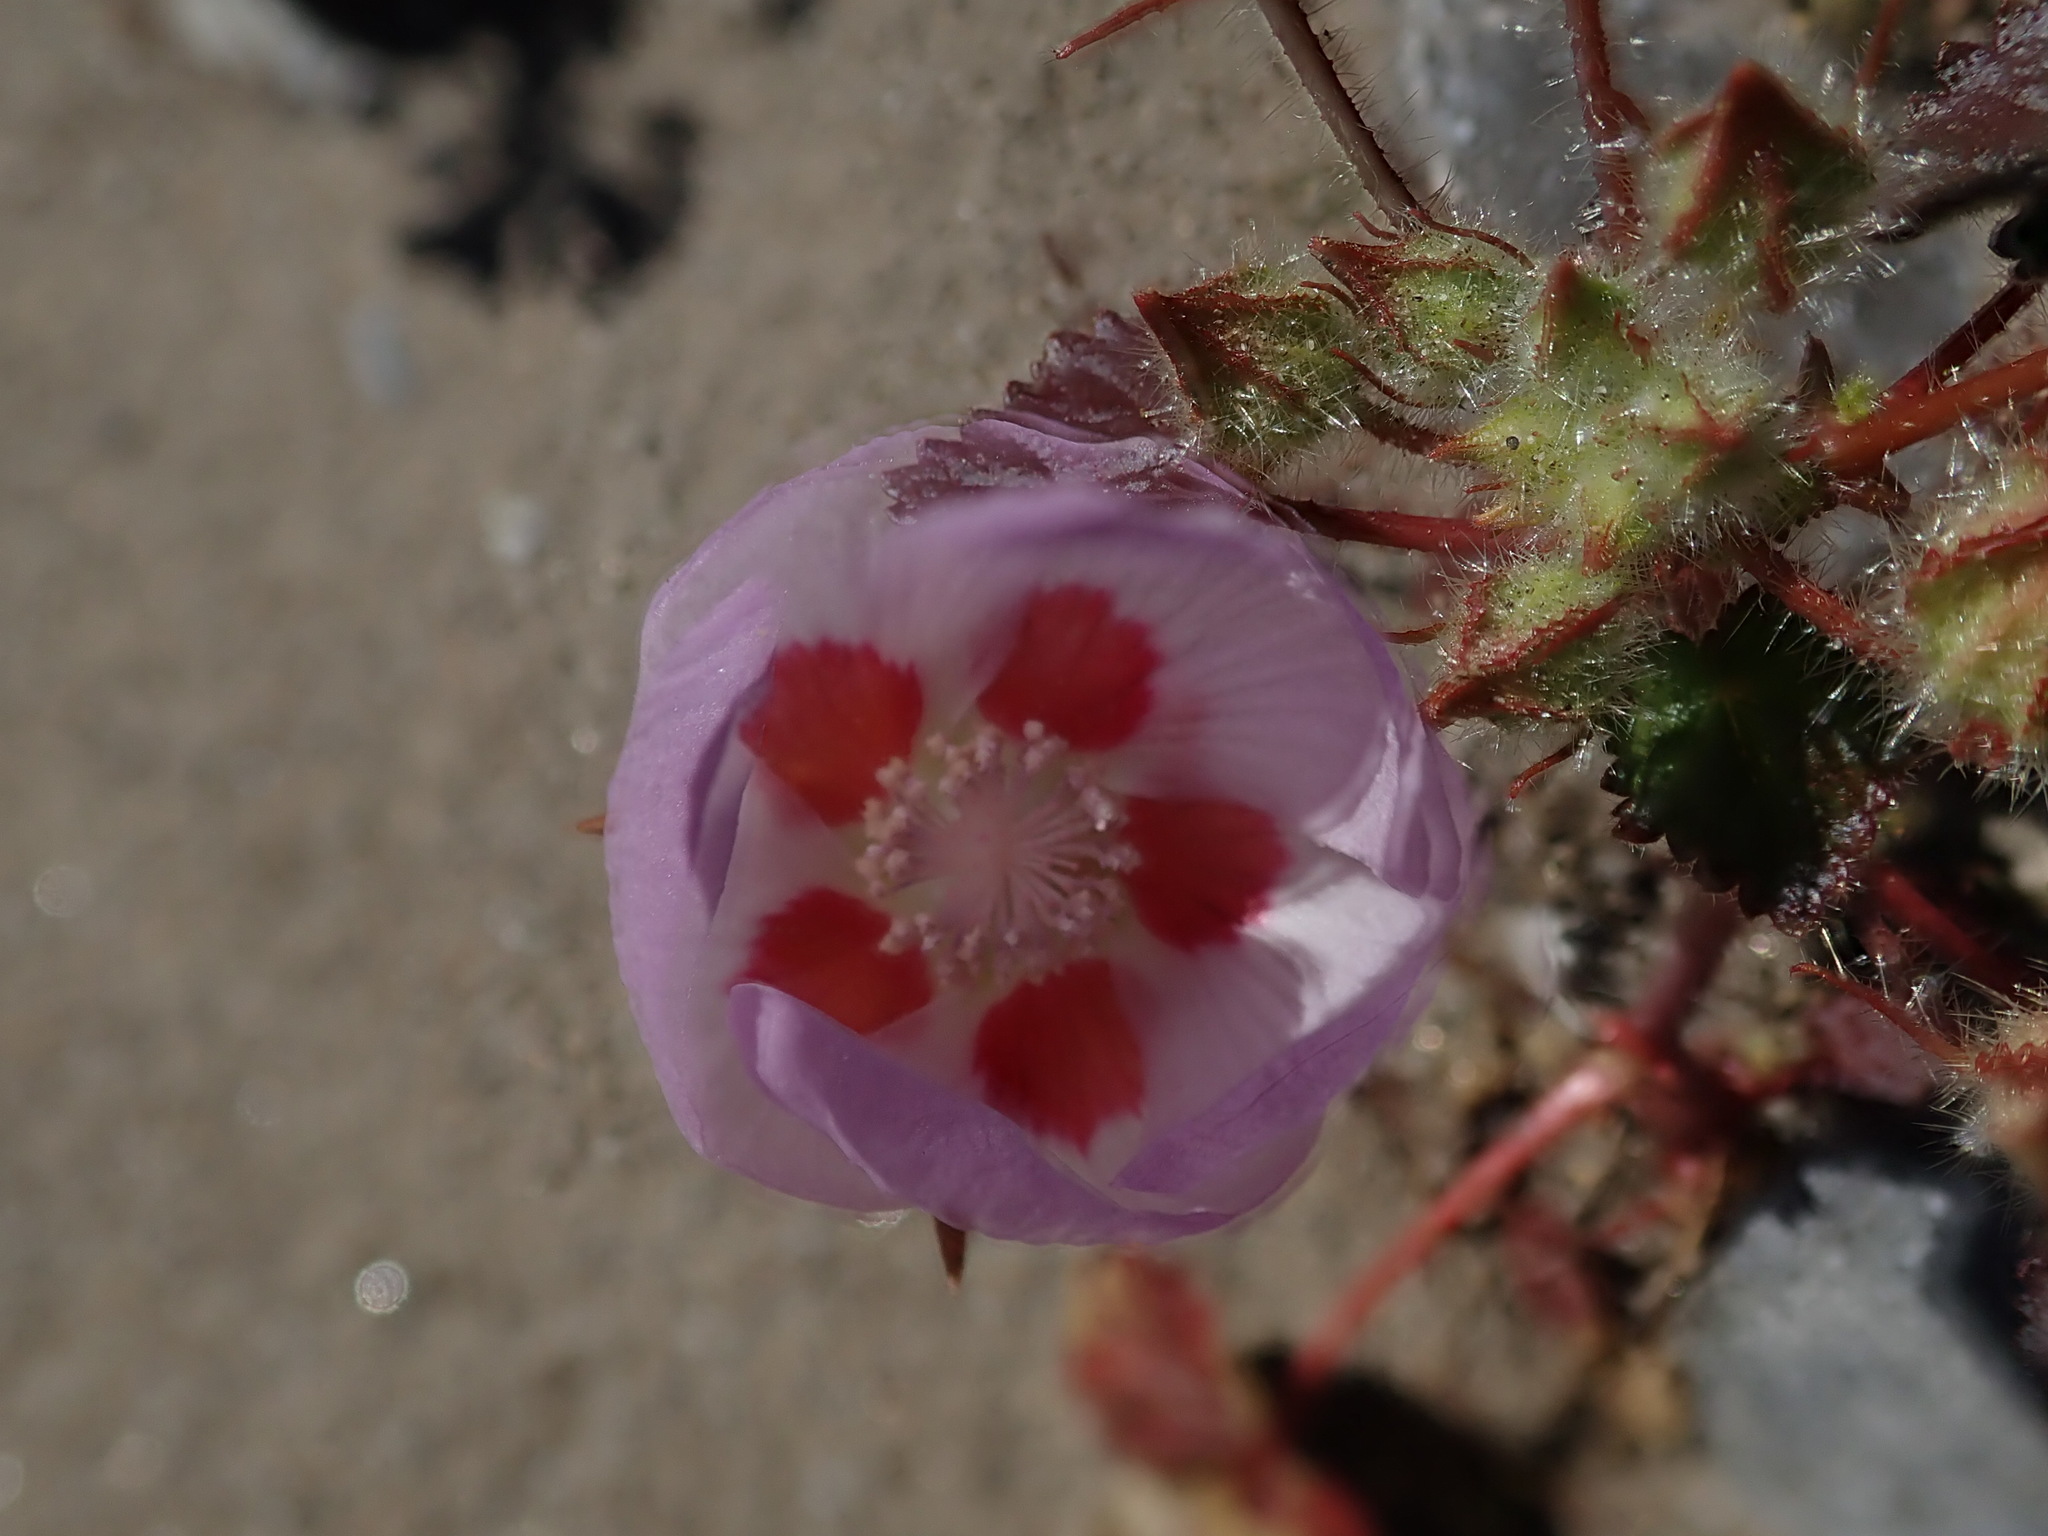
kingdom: Plantae
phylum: Tracheophyta
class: Magnoliopsida
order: Malvales
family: Malvaceae
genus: Eremalche
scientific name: Eremalche rotundifolia
